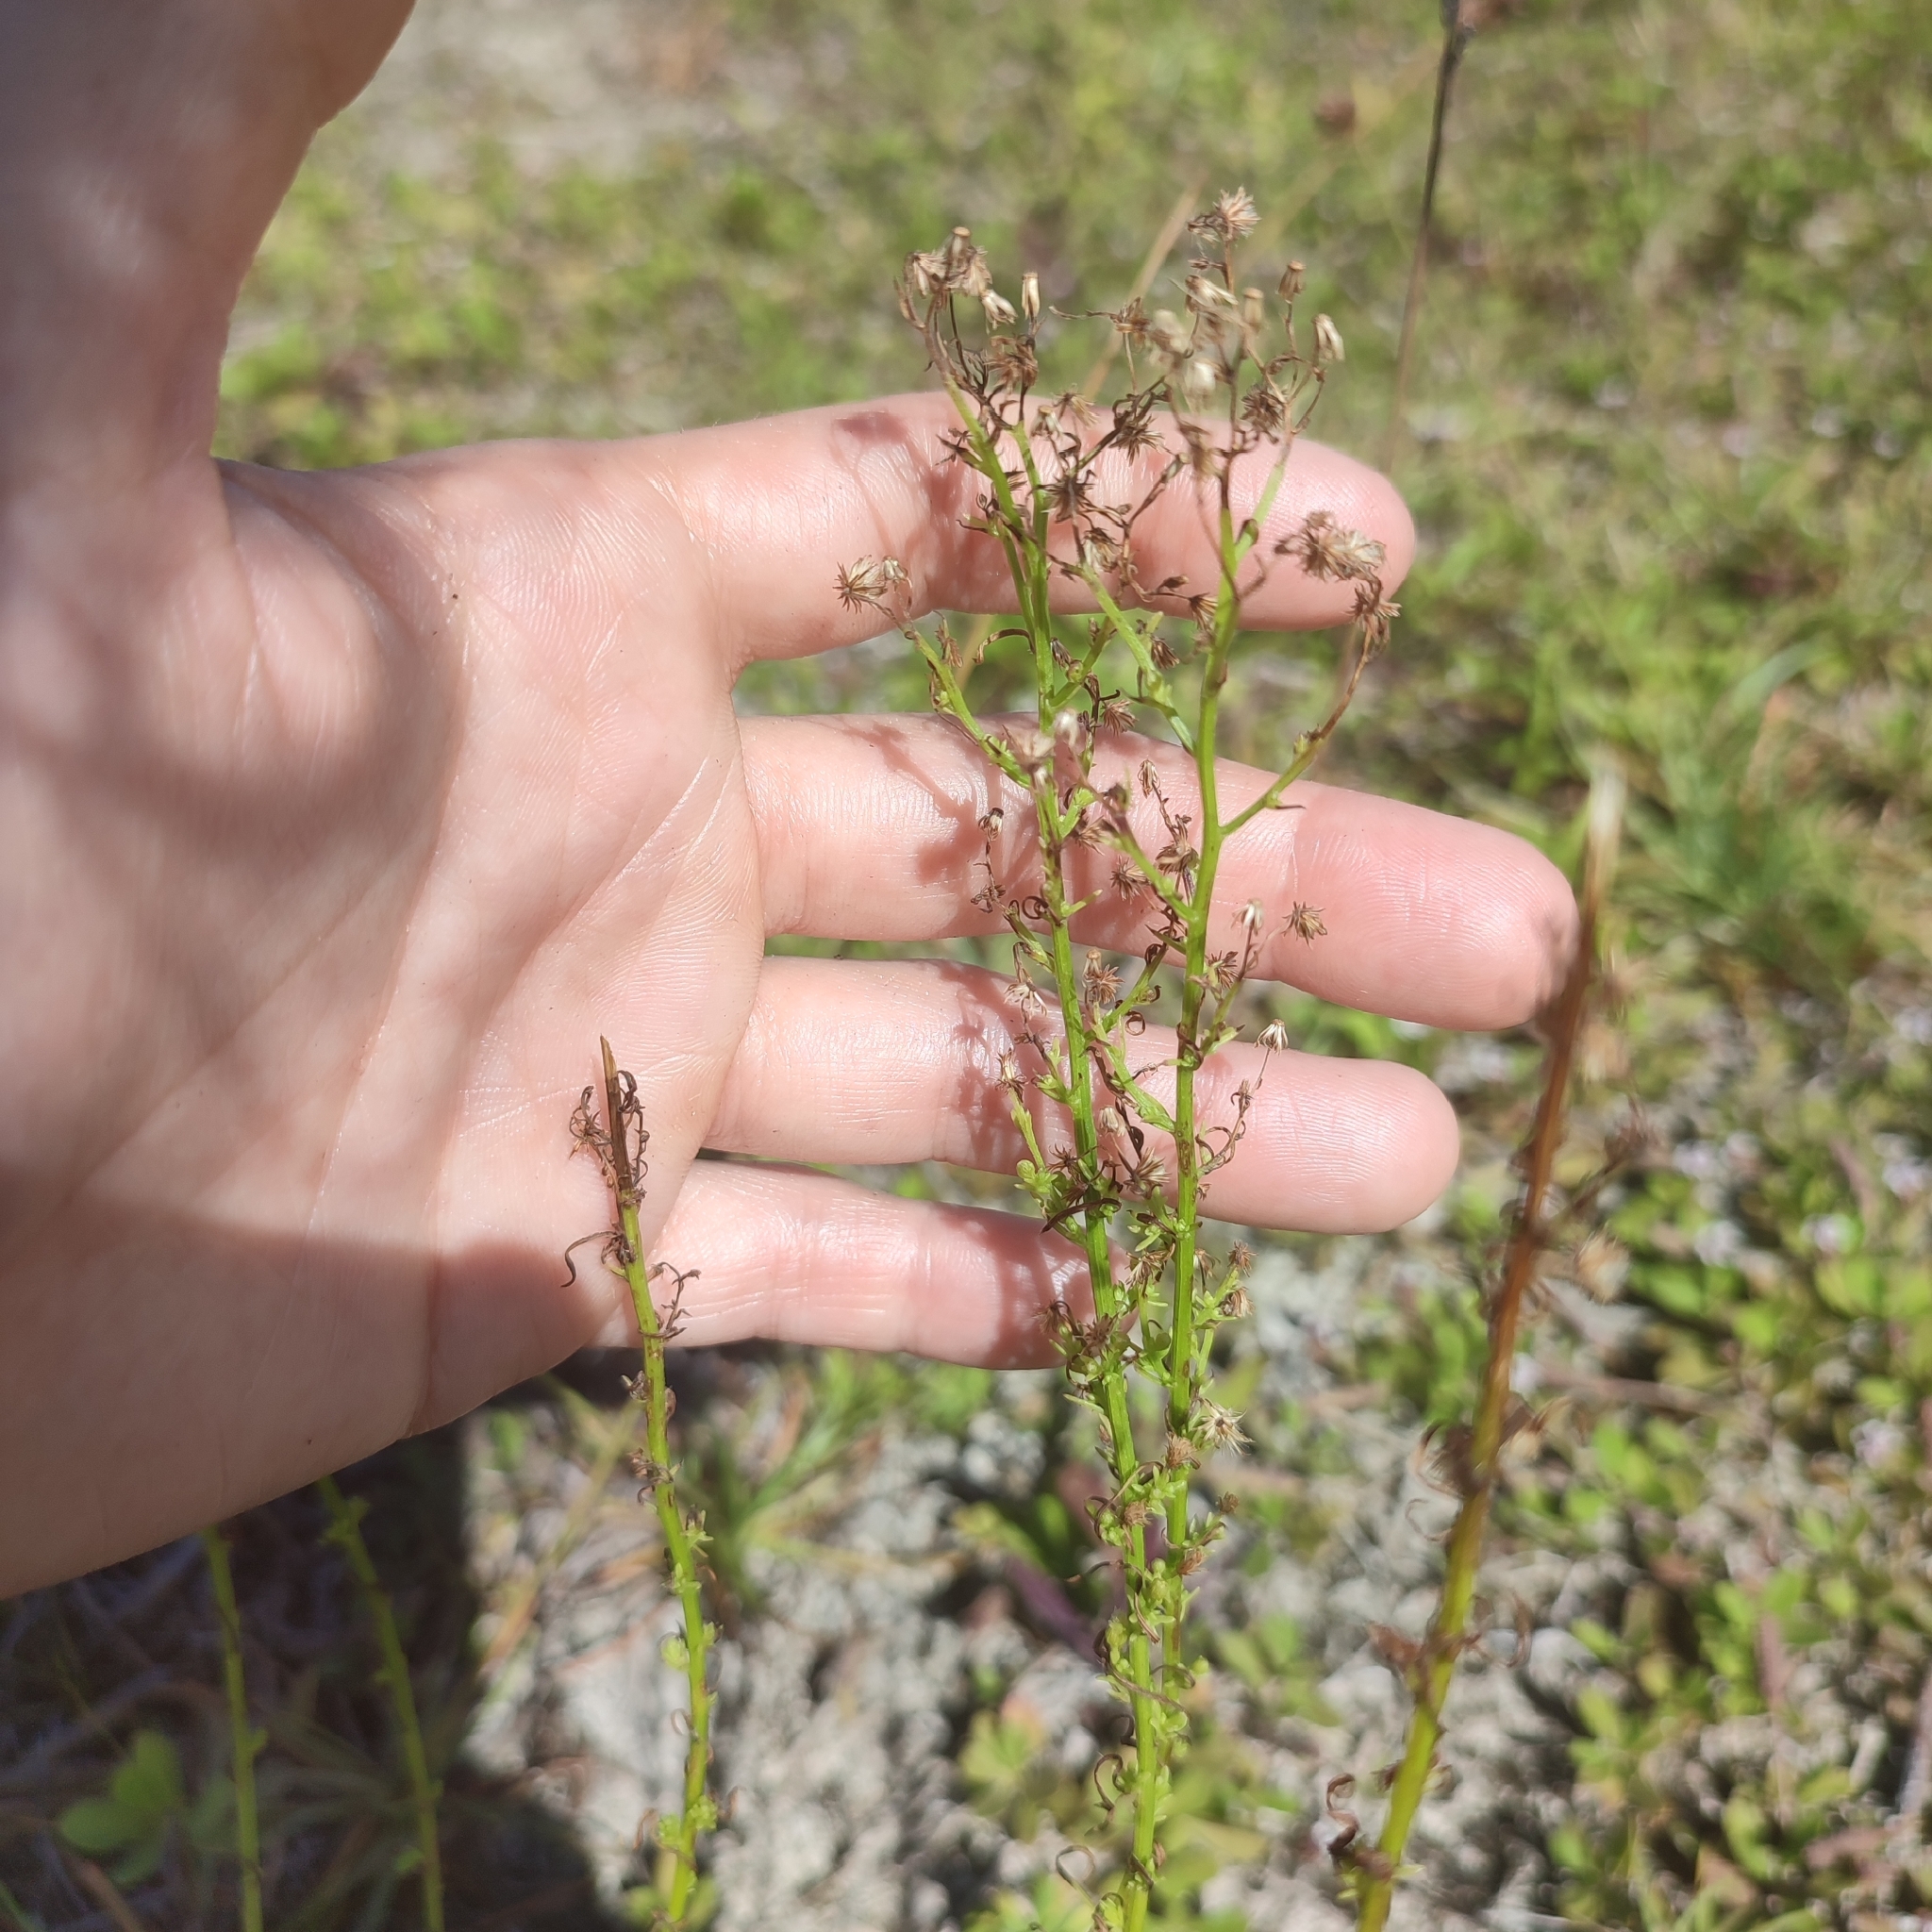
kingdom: Plantae
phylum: Tracheophyta
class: Magnoliopsida
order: Asterales
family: Asteraceae
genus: Erigeron
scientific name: Erigeron canadensis
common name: Canadian fleabane
